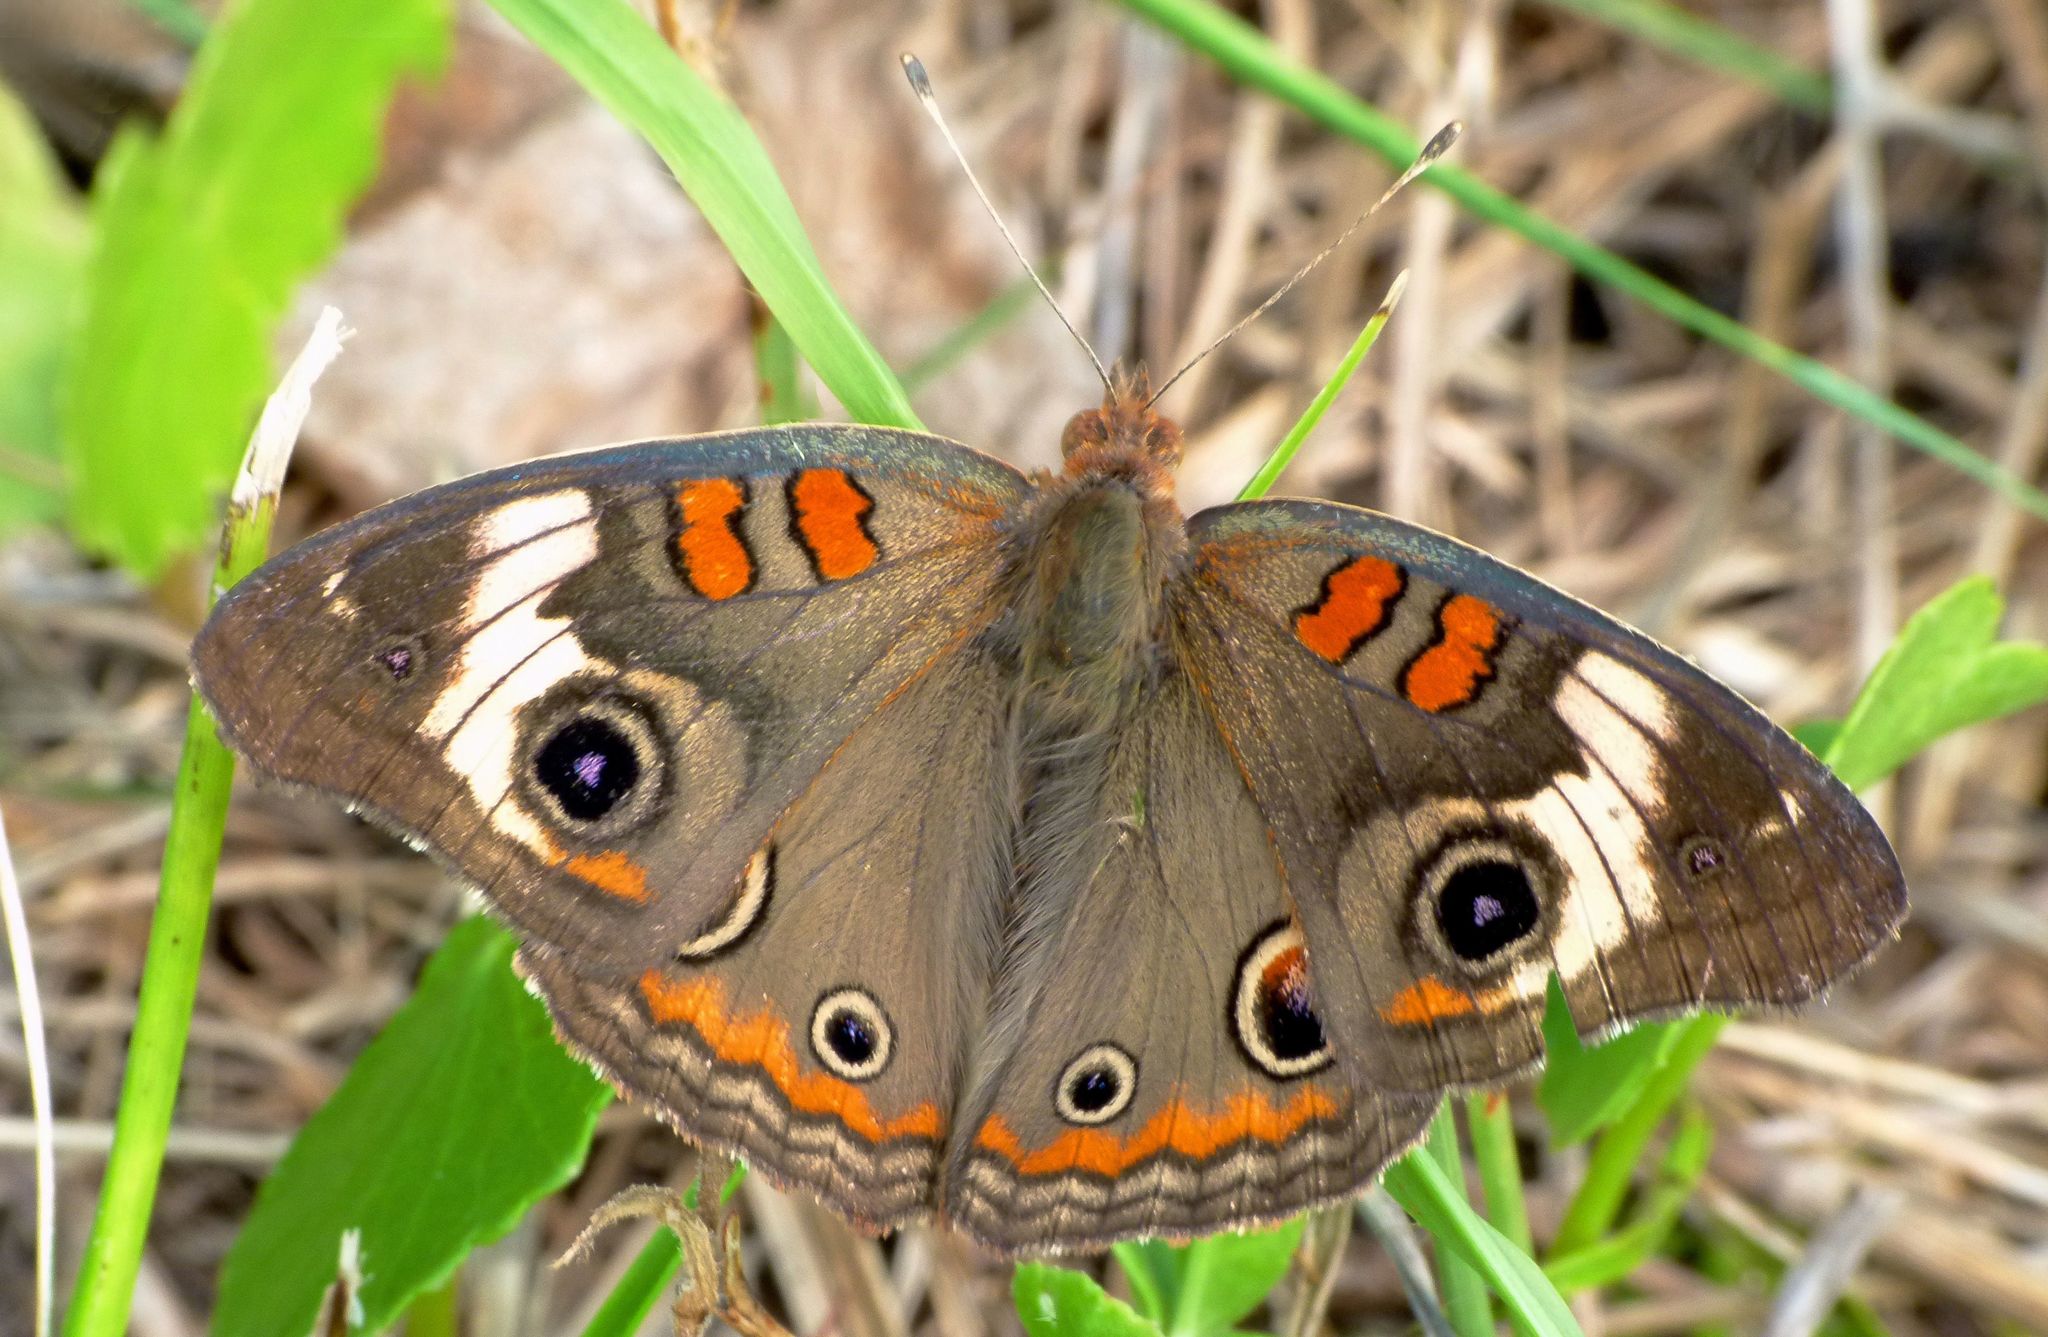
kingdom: Animalia
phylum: Arthropoda
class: Insecta
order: Lepidoptera
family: Nymphalidae
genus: Junonia
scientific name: Junonia coenia
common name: Common buckeye
